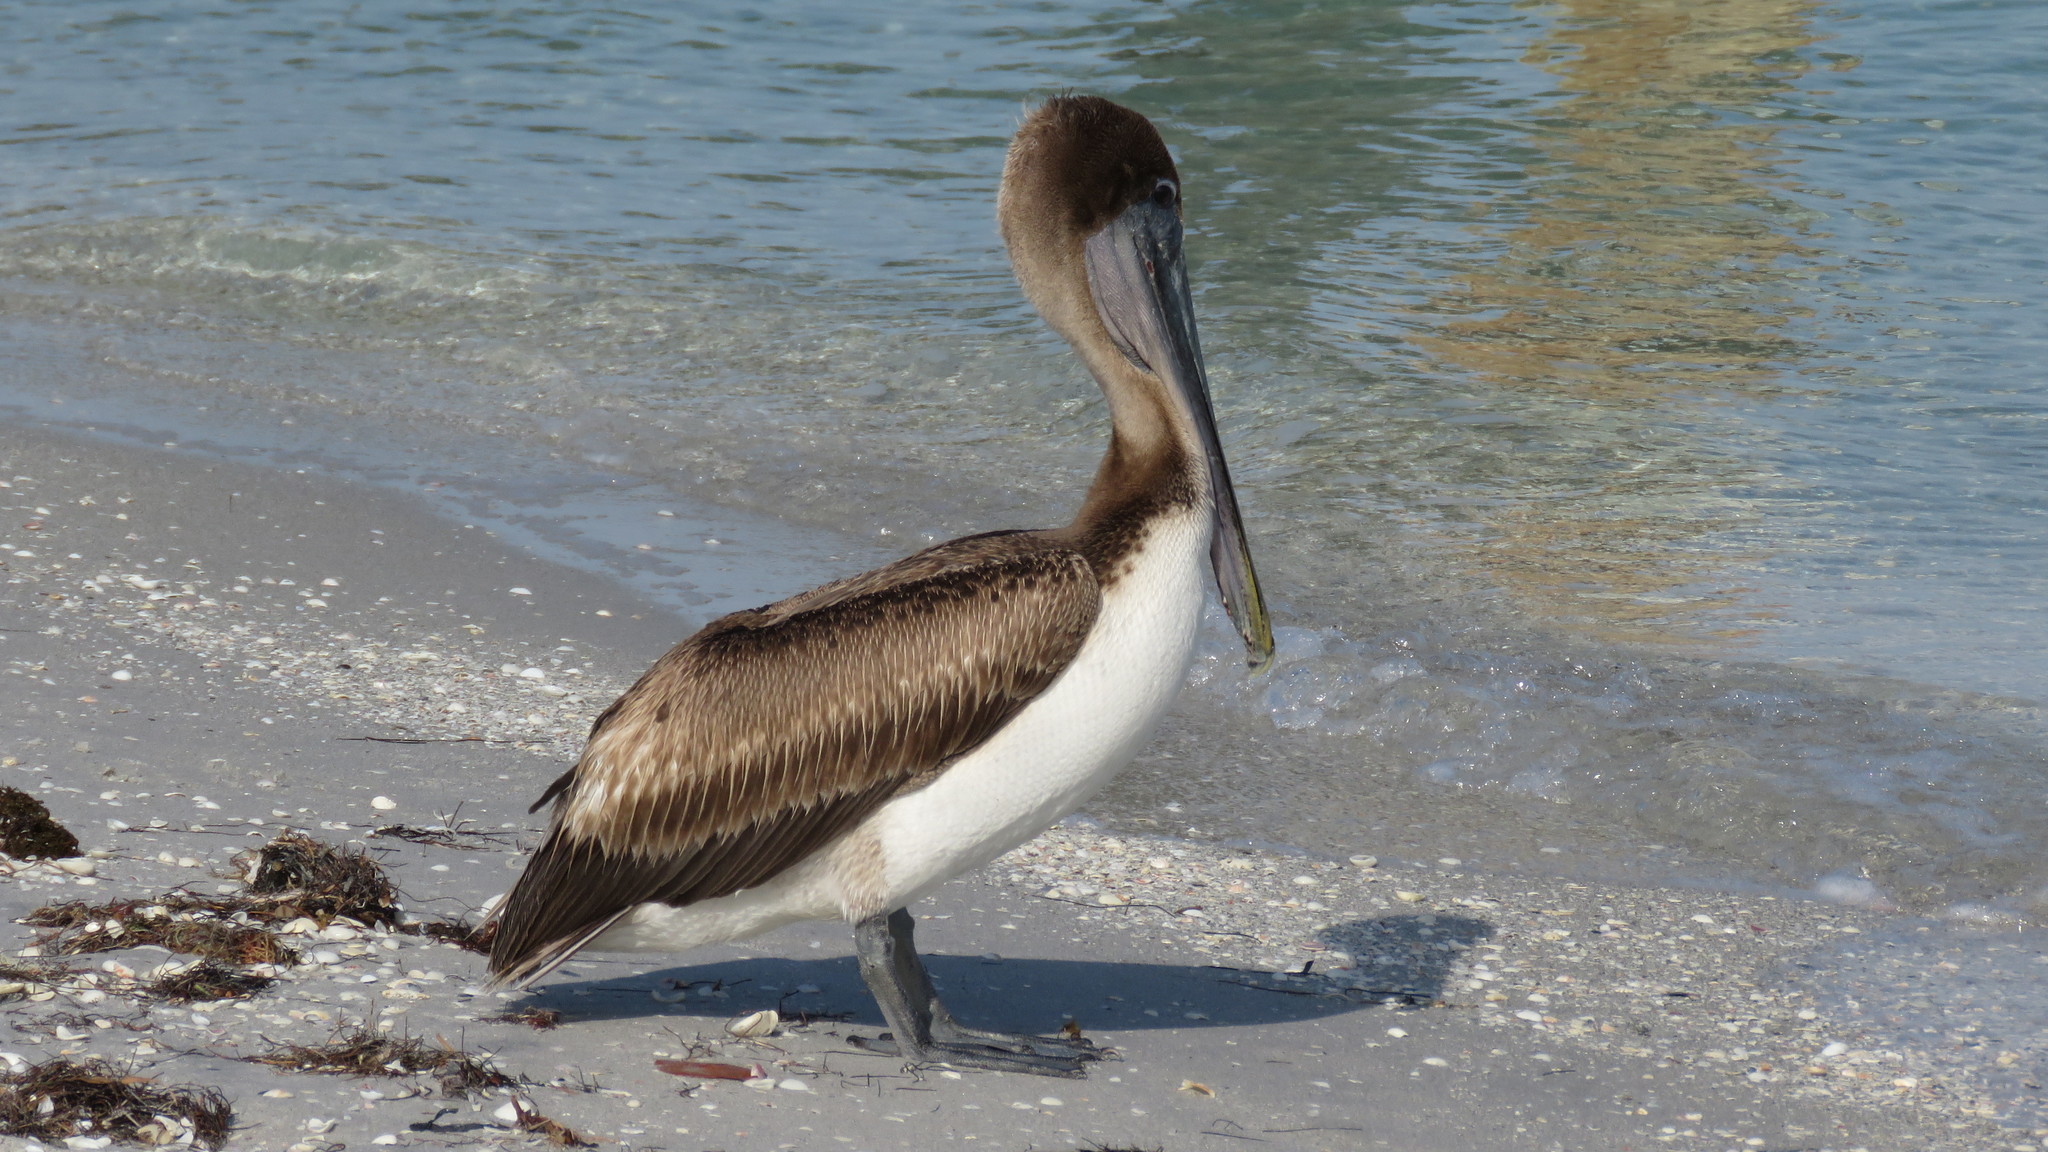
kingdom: Animalia
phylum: Chordata
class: Aves
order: Pelecaniformes
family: Pelecanidae
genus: Pelecanus
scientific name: Pelecanus occidentalis
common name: Brown pelican
